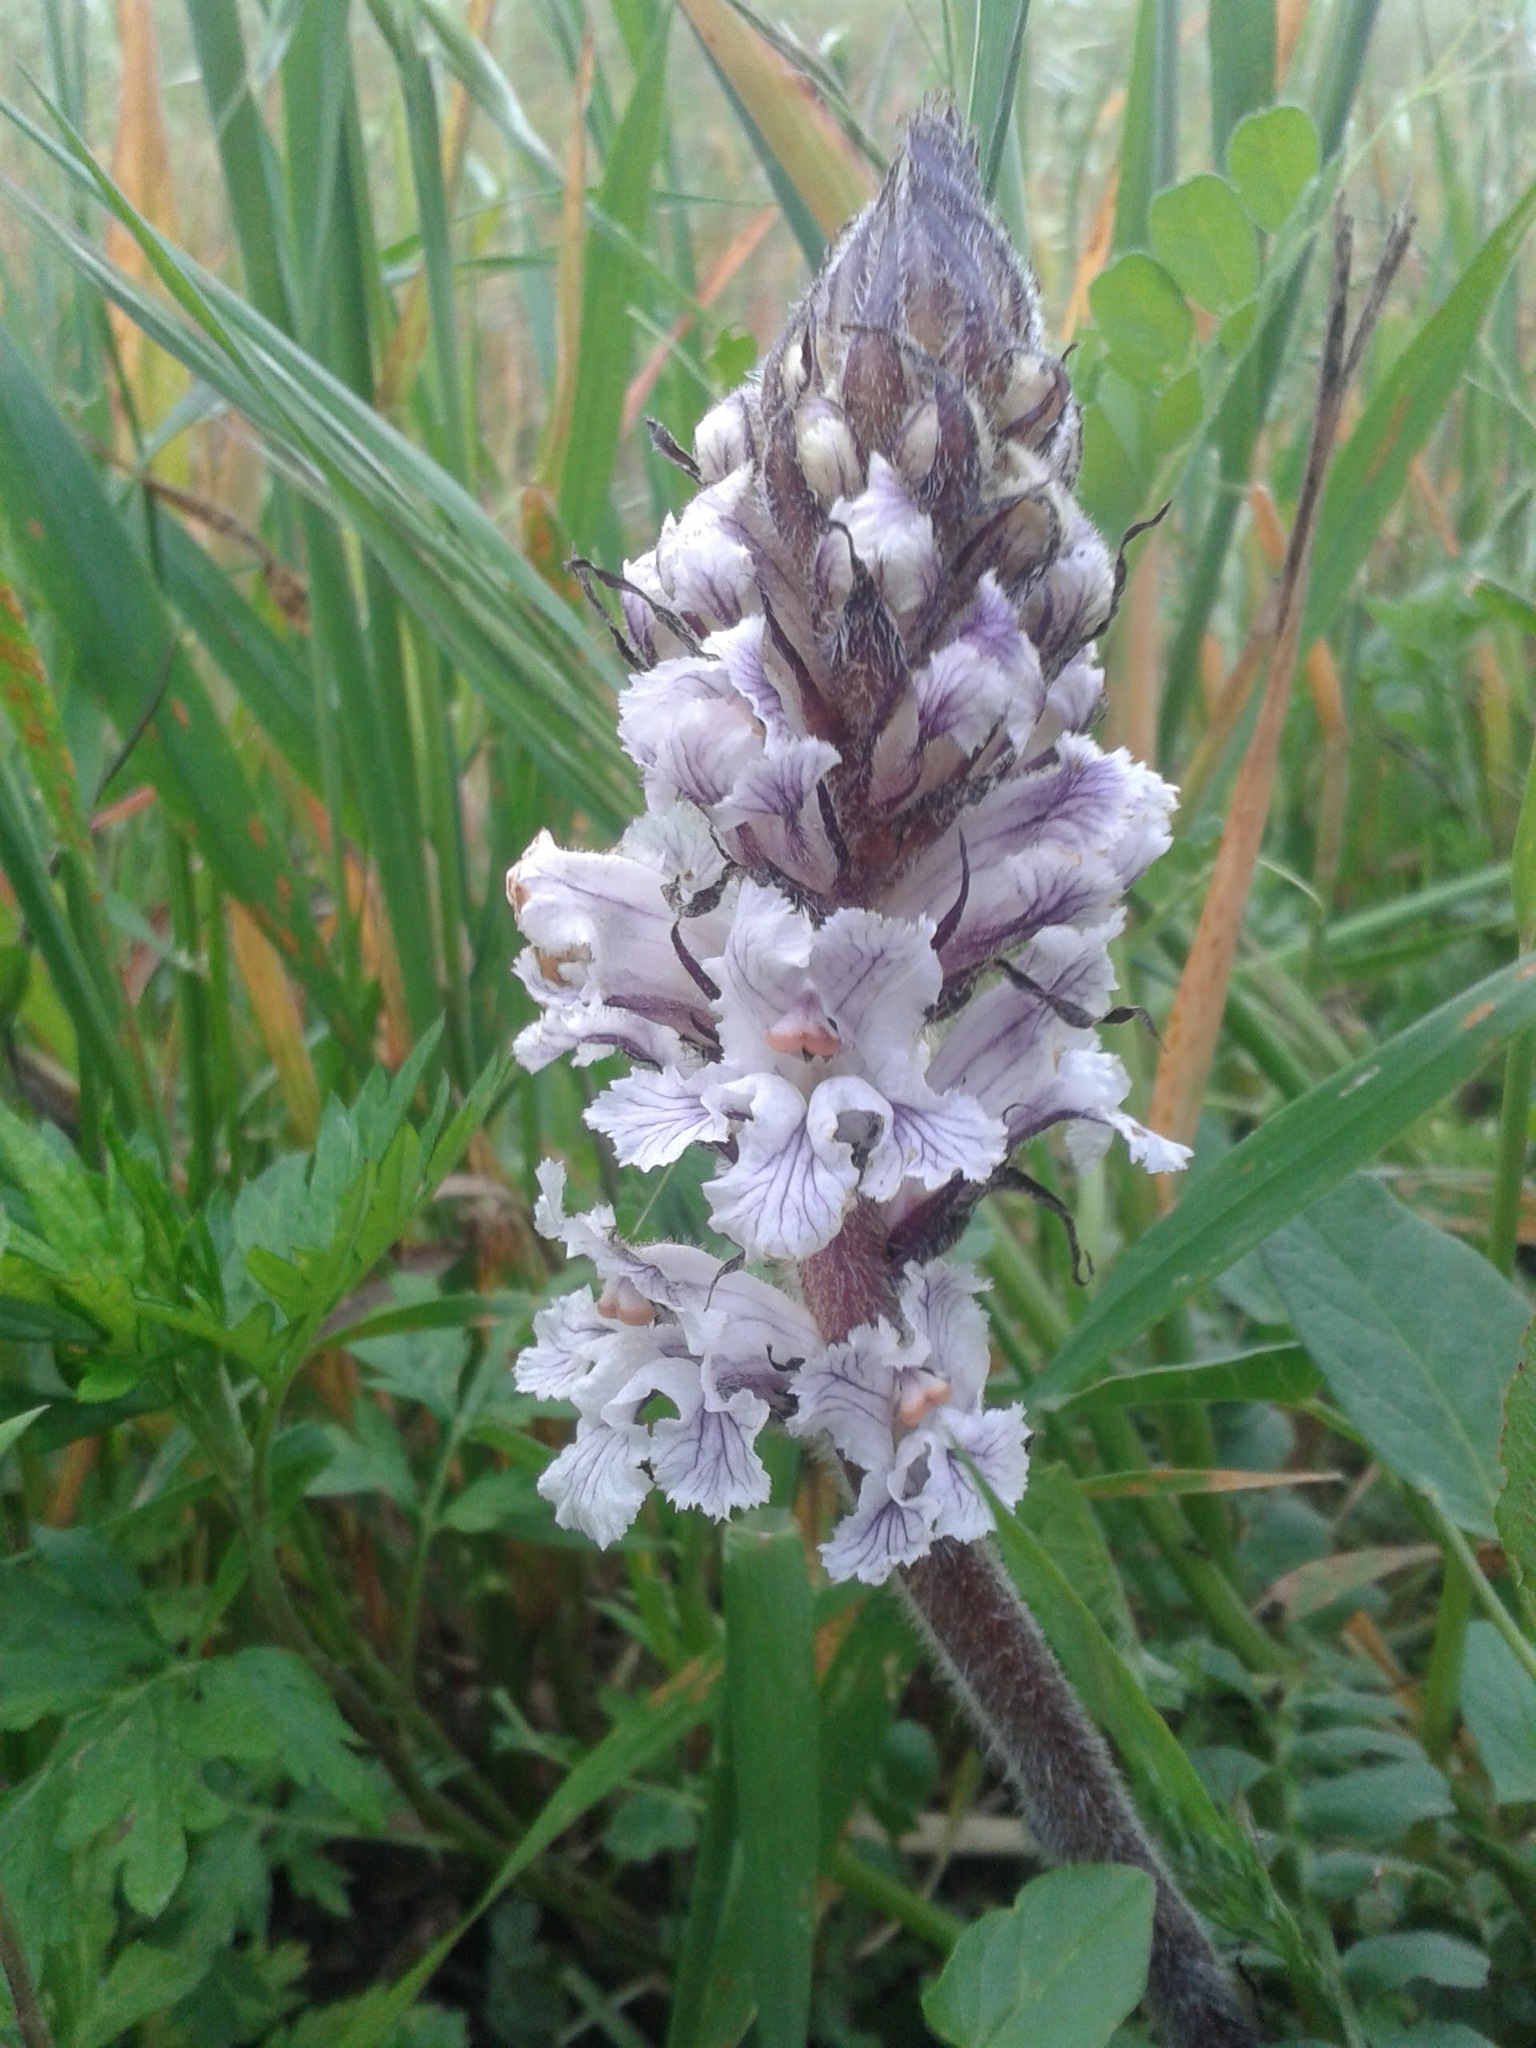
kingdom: Plantae
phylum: Tracheophyta
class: Magnoliopsida
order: Lamiales
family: Orobanchaceae
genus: Orobanche
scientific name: Orobanche crenata
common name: Bean broomrape
